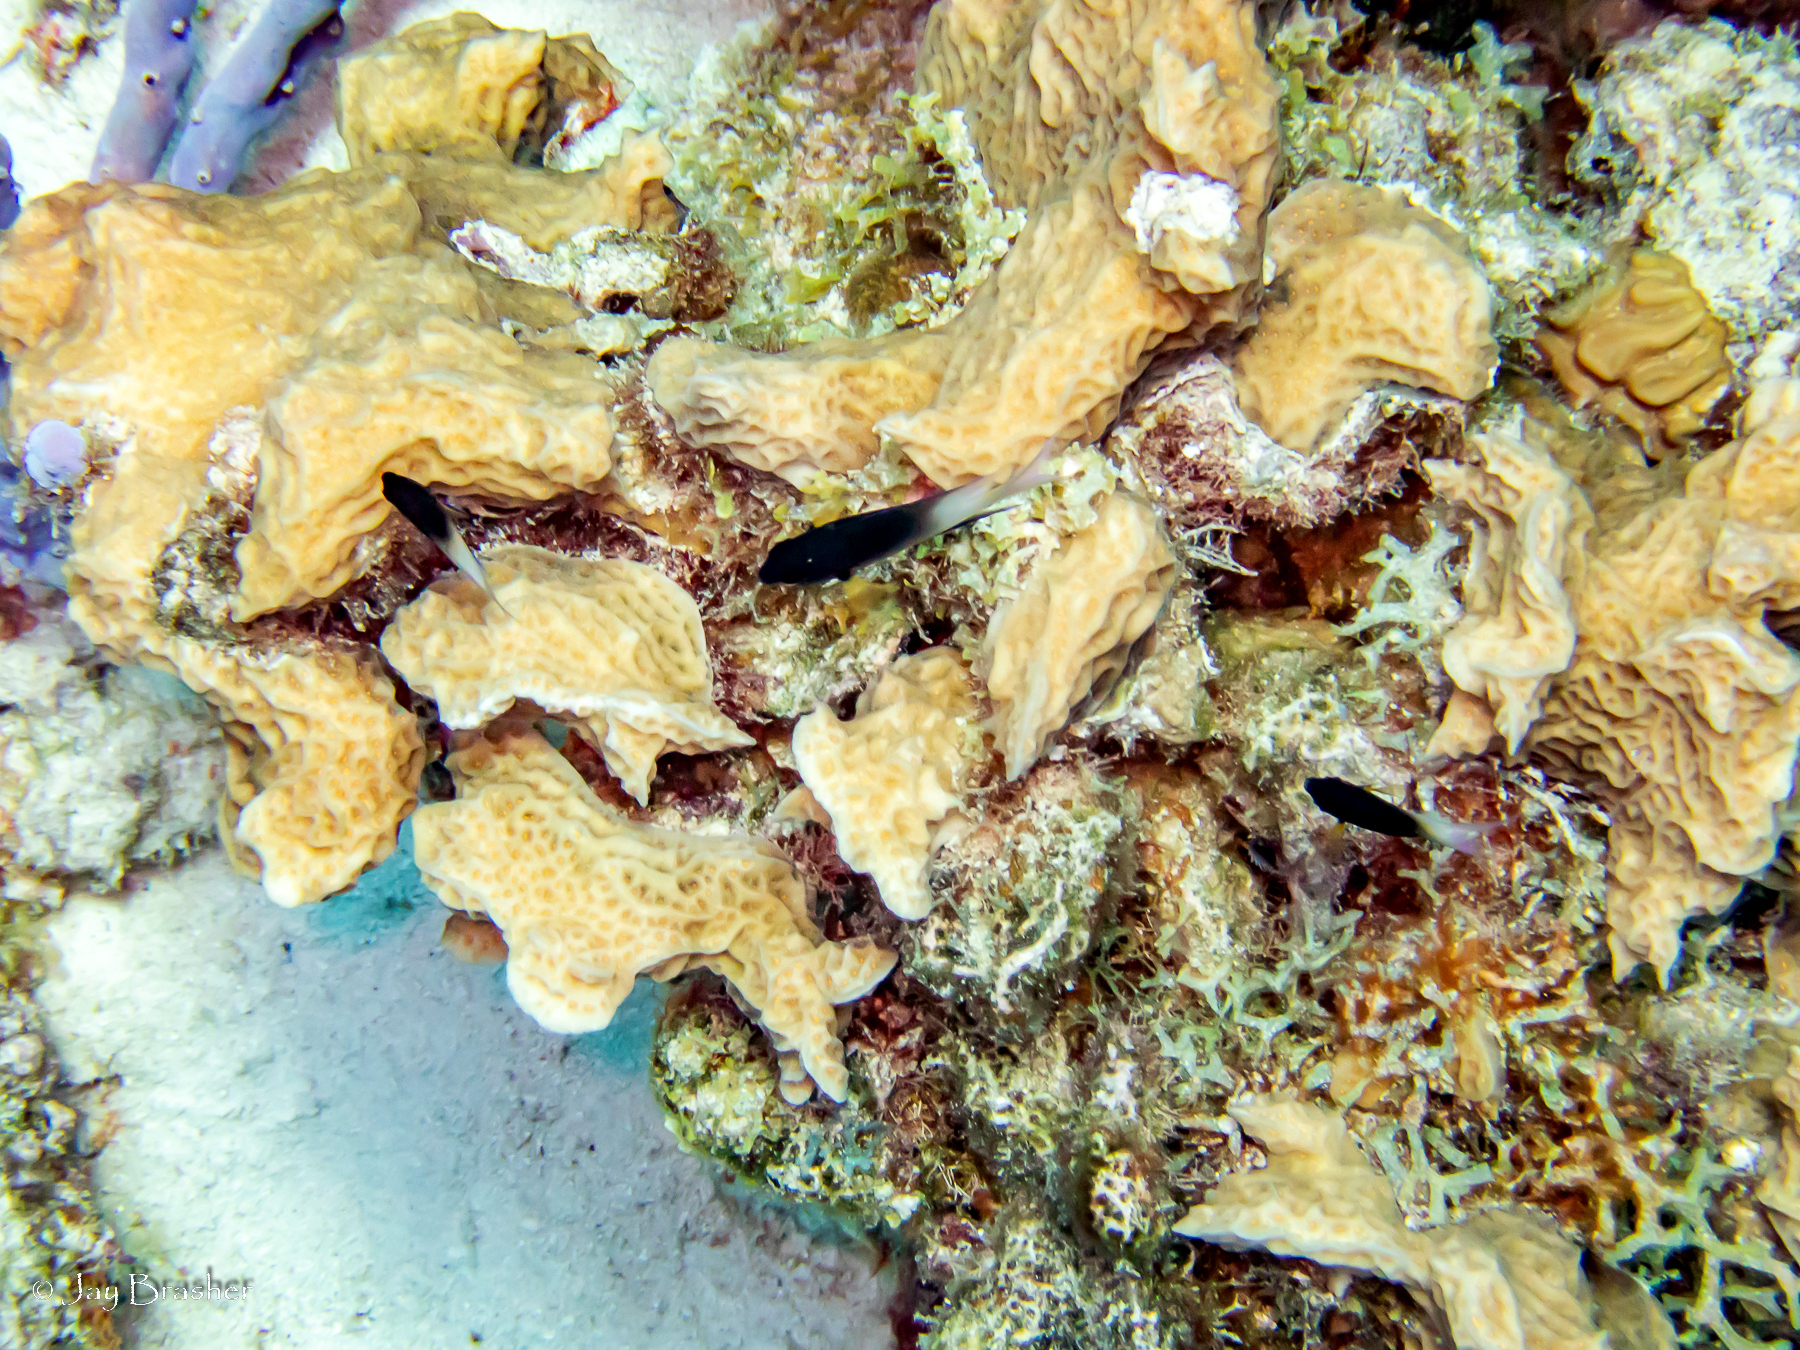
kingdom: Animalia
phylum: Cnidaria
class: Anthozoa
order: Scleractinia
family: Agariciidae
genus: Agaricia
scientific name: Agaricia agaricites
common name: Lettuce coral
